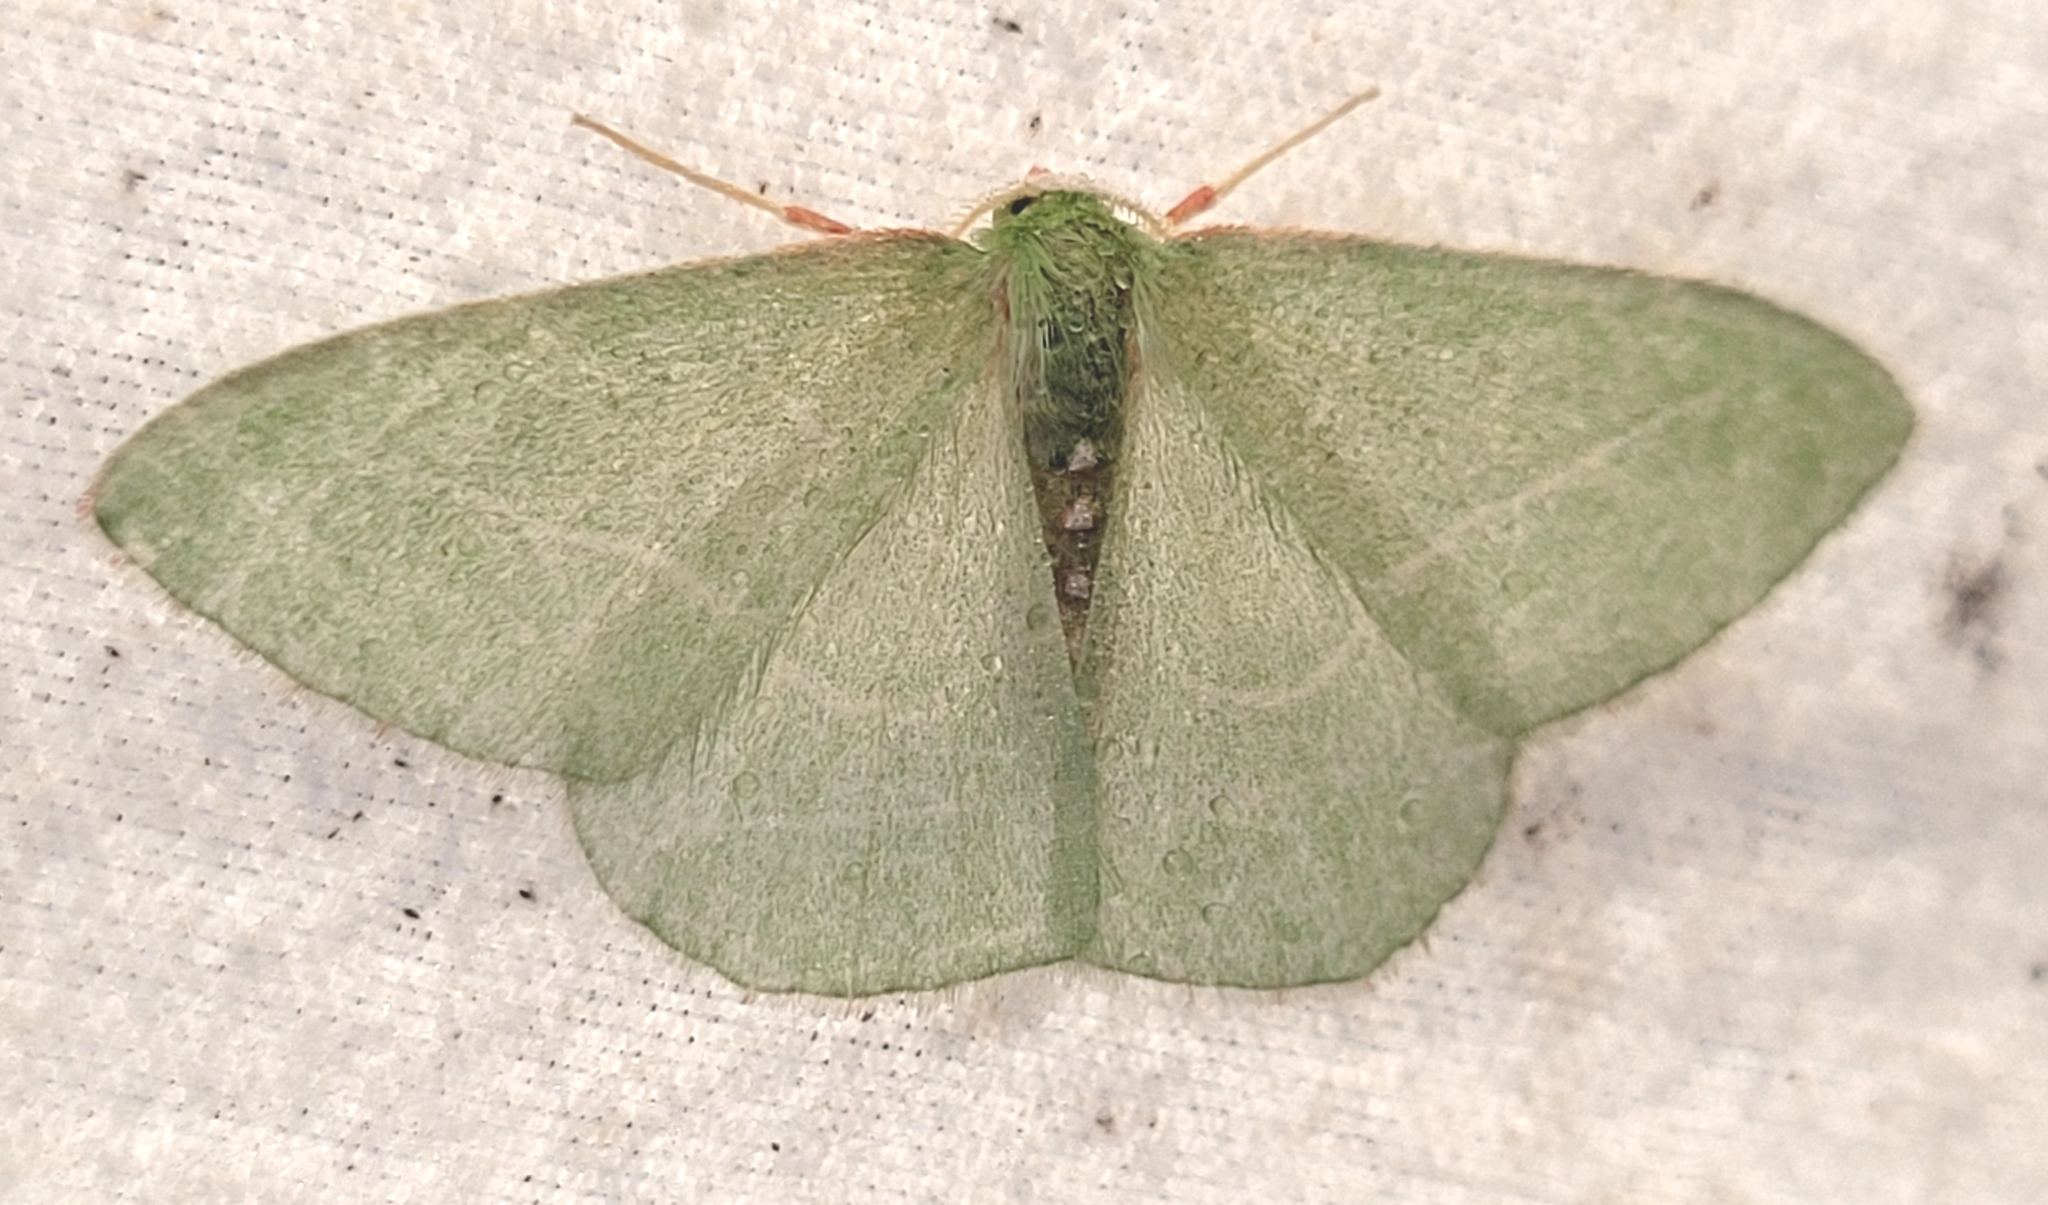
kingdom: Animalia
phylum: Arthropoda
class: Insecta
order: Lepidoptera
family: Geometridae
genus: Nemoria
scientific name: Nemoria unitaria
